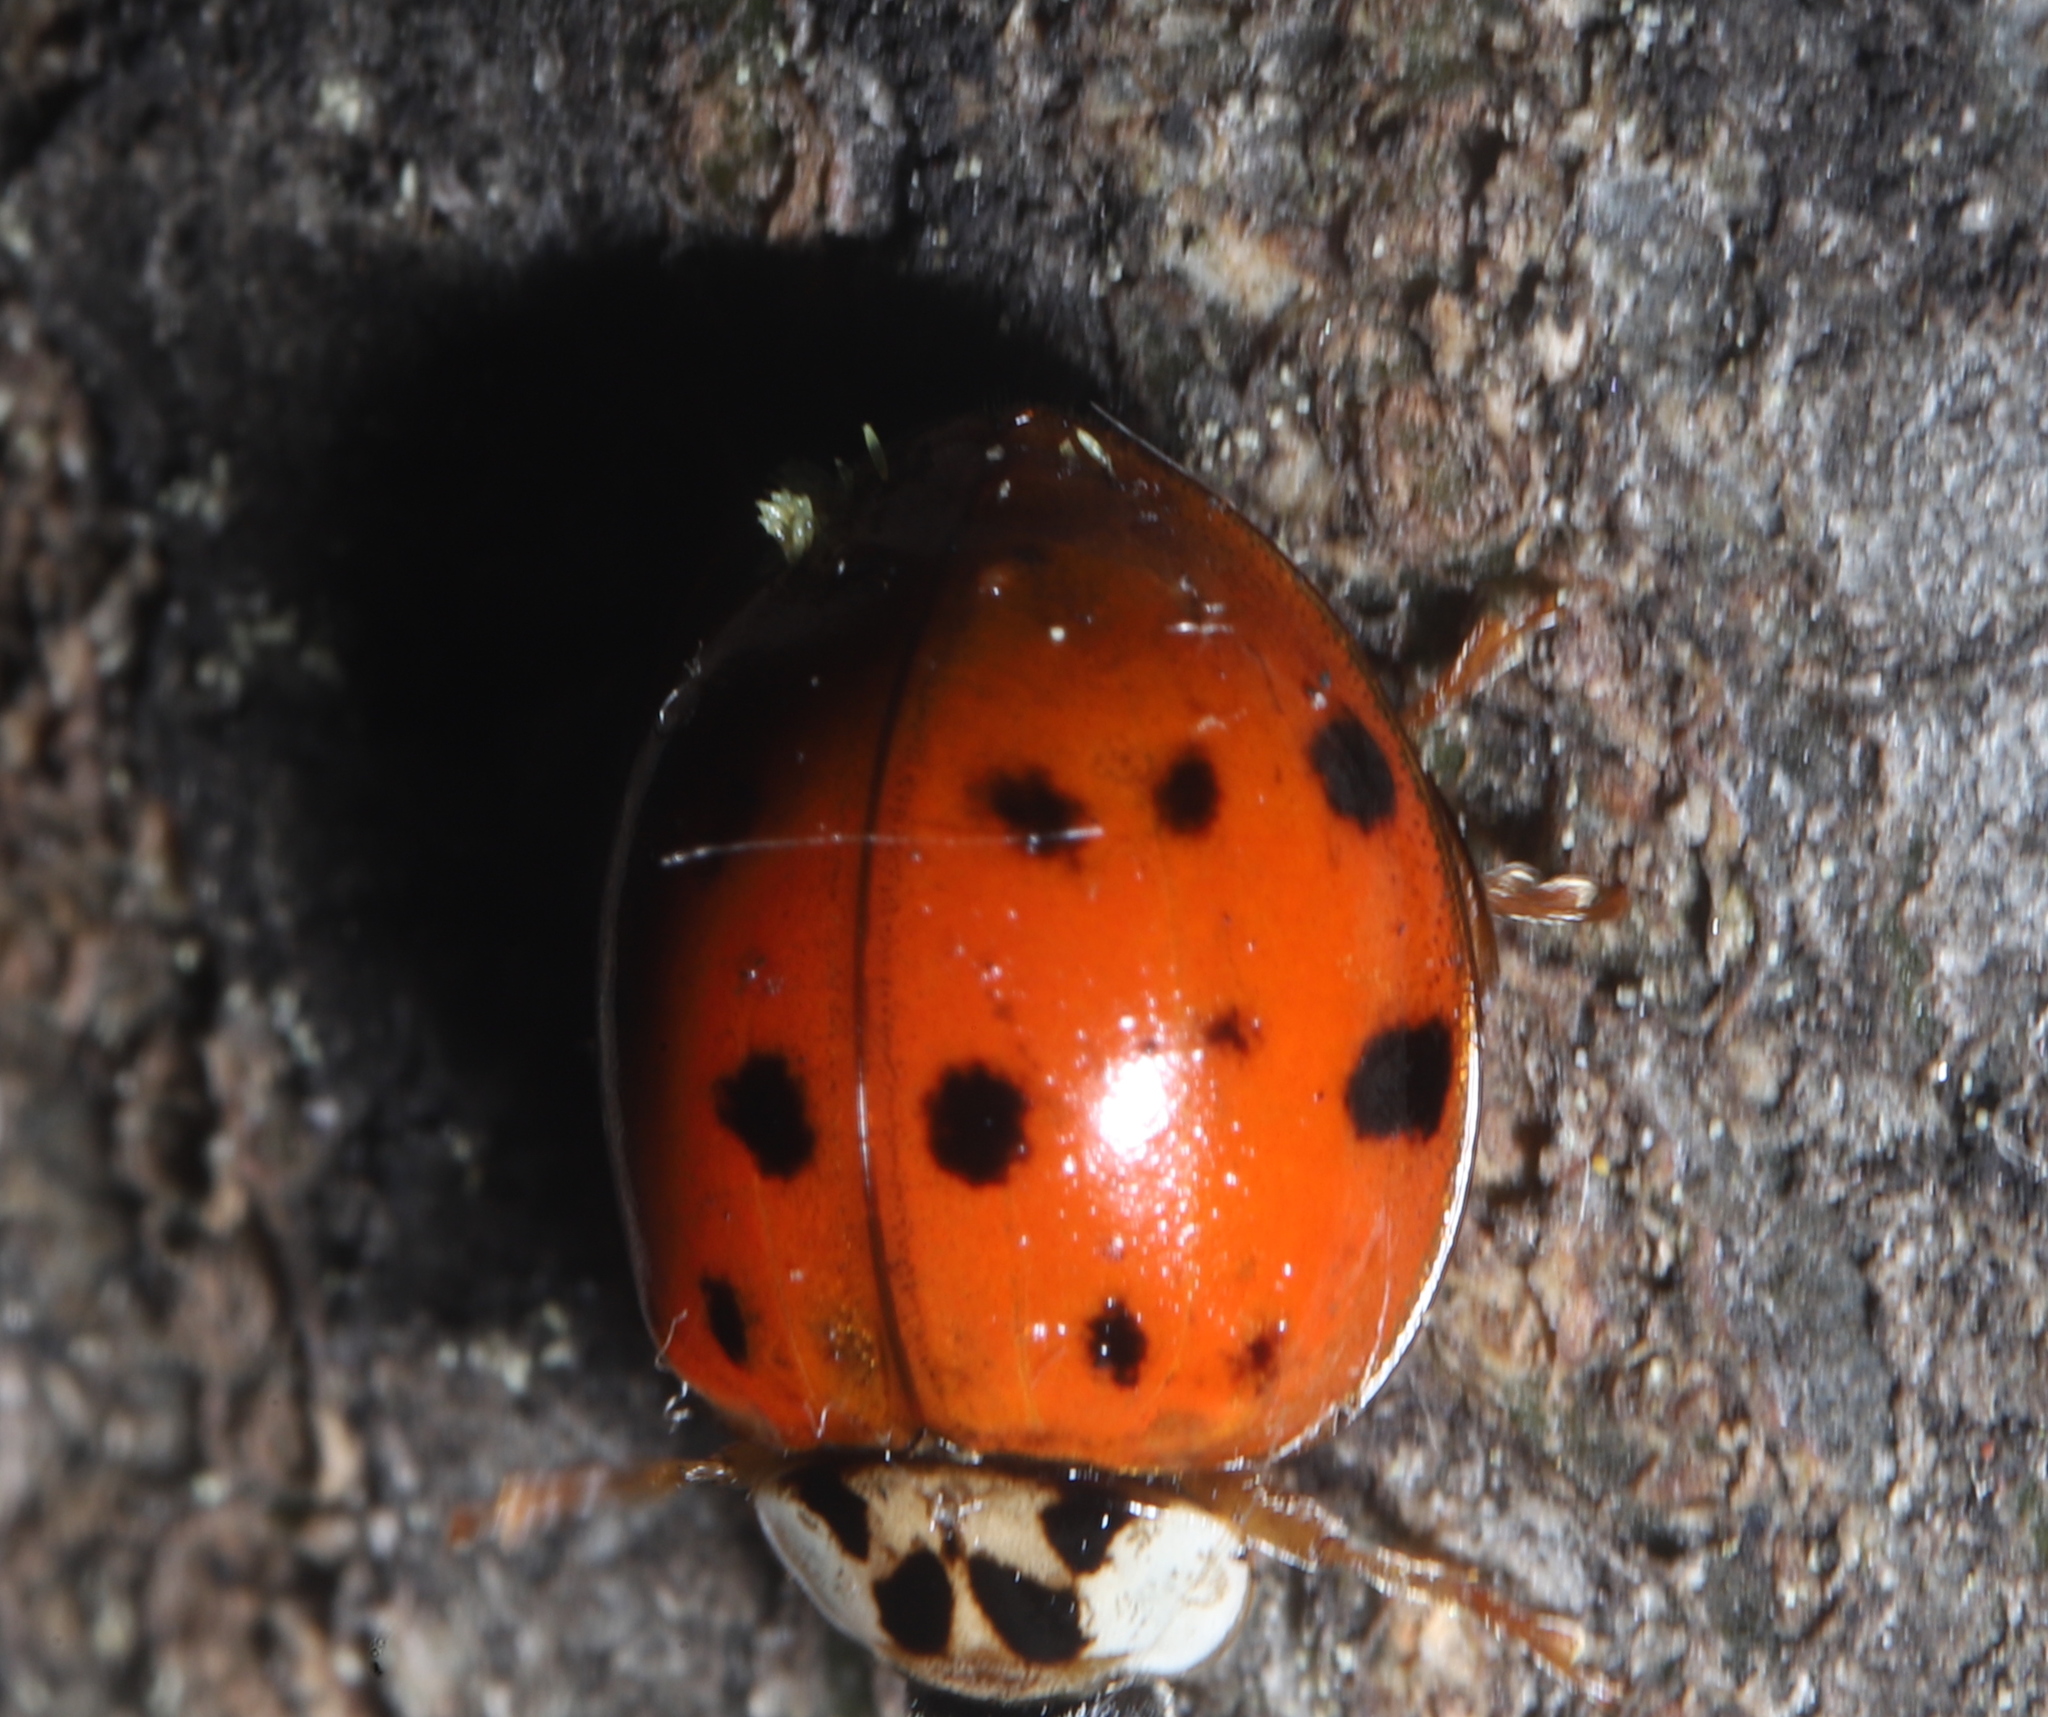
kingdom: Fungi
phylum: Ascomycota
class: Laboulbeniomycetes
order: Laboulbeniales
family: Laboulbeniaceae
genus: Hesperomyces
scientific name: Hesperomyces harmoniae
